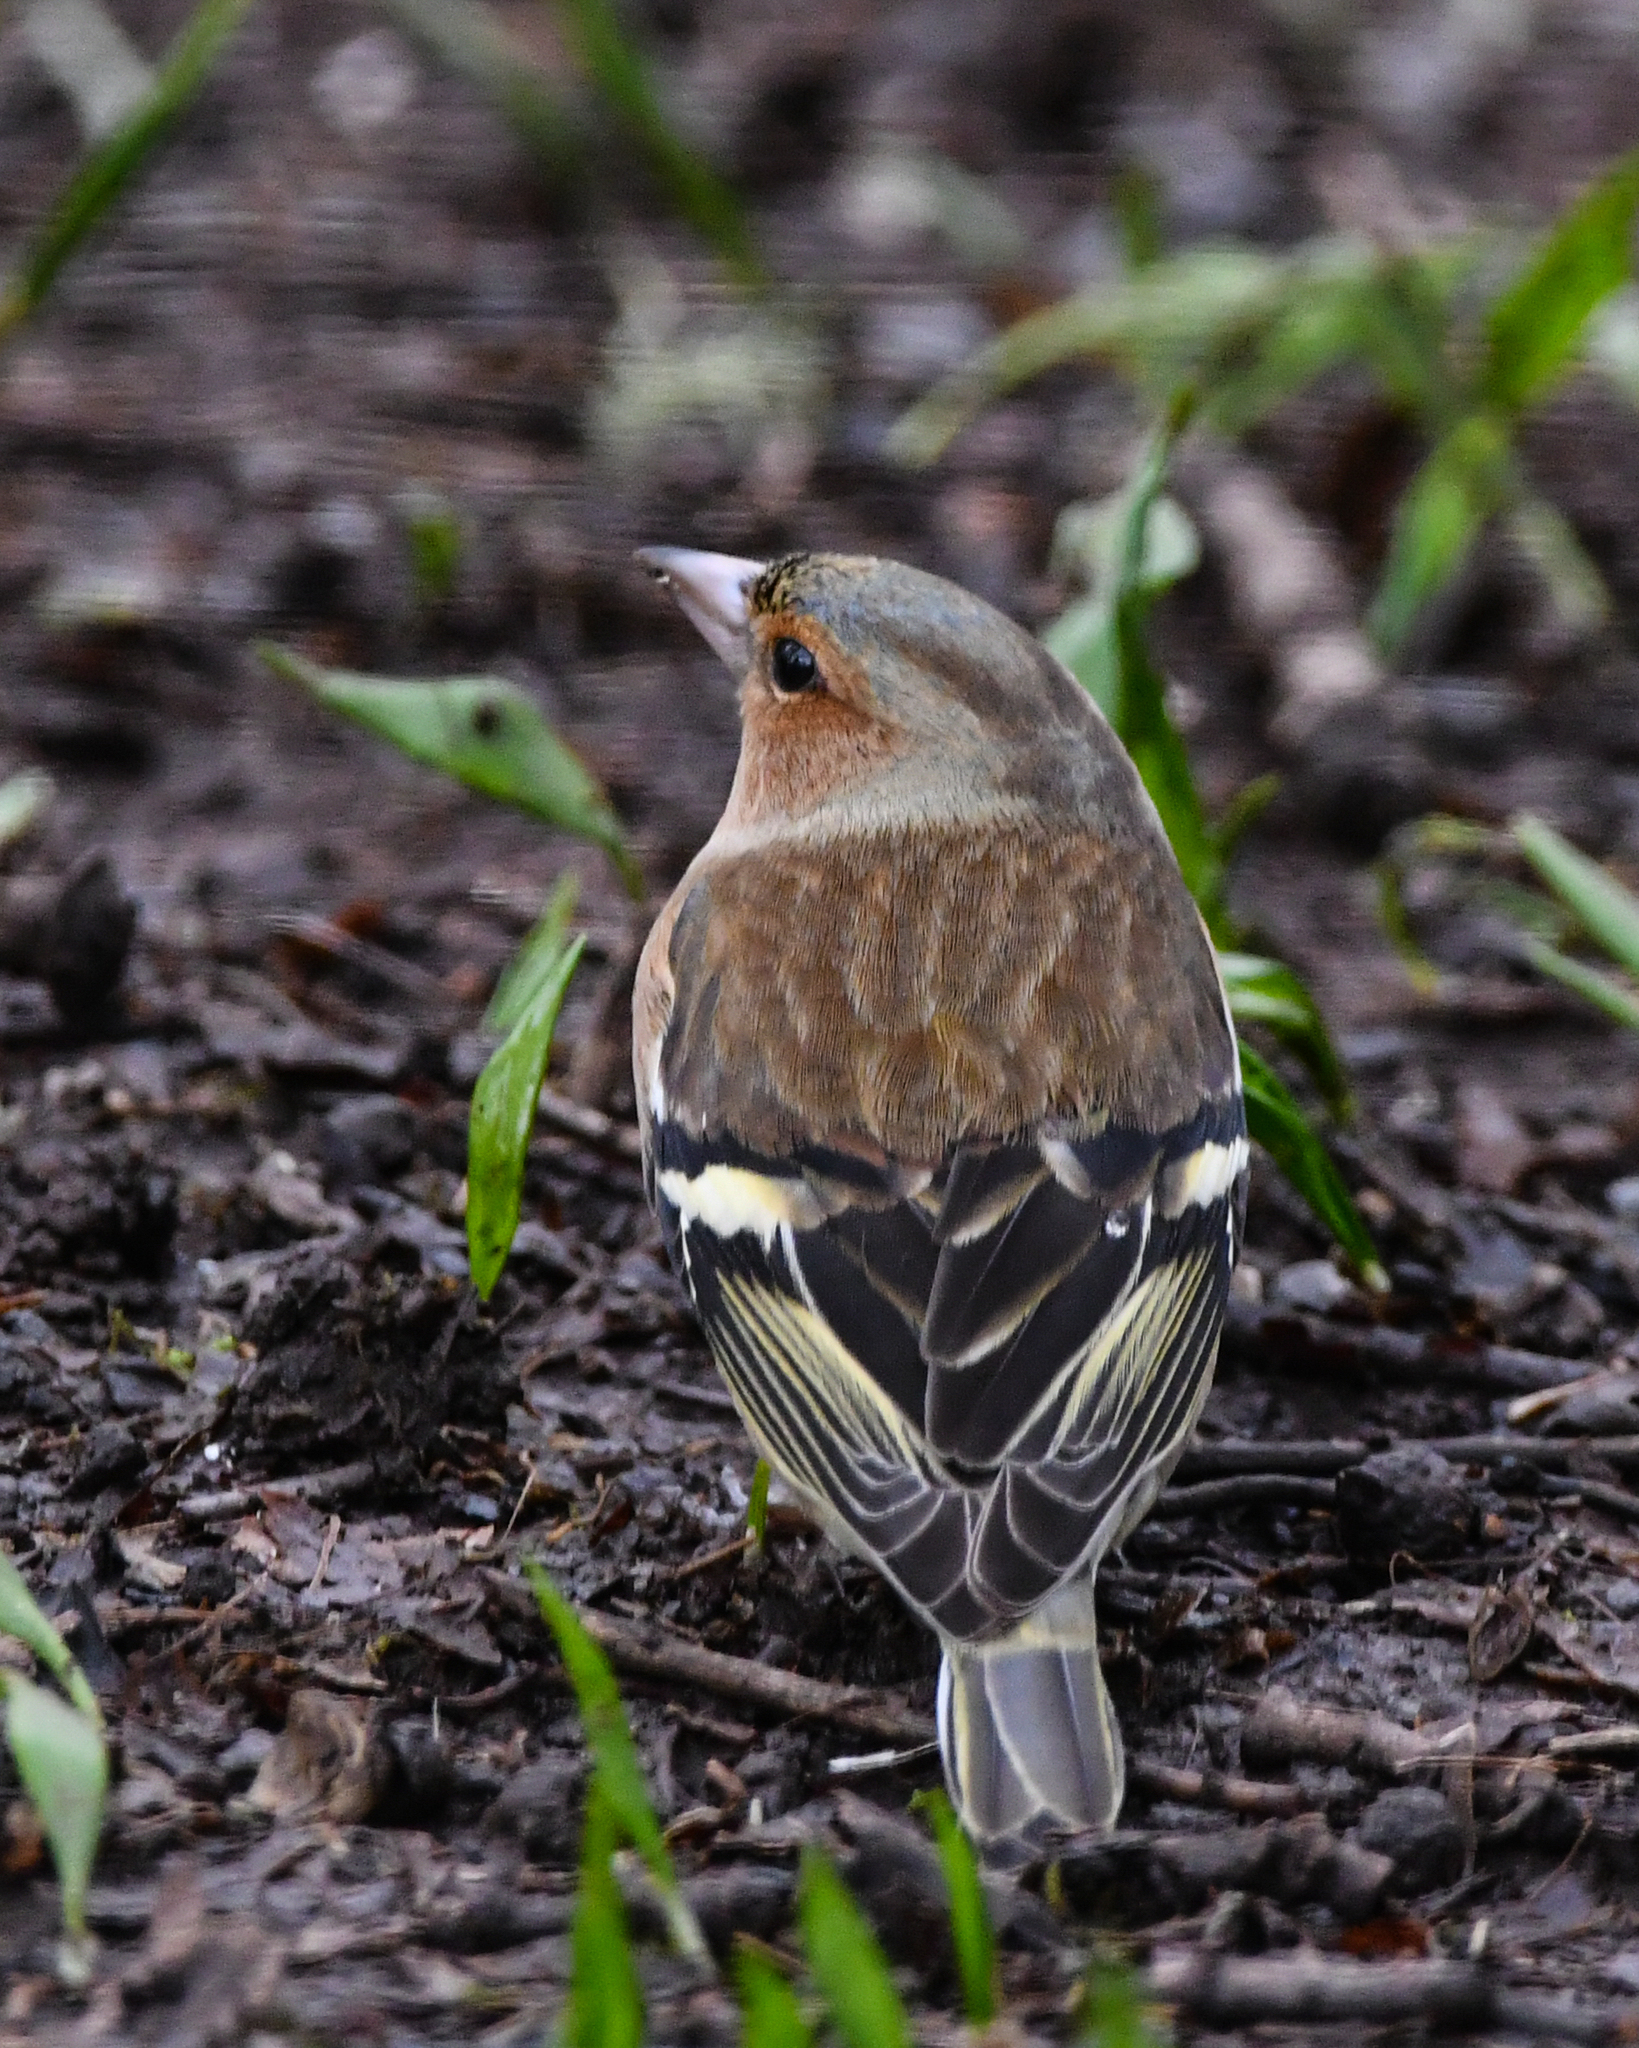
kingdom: Animalia
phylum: Chordata
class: Aves
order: Passeriformes
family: Fringillidae
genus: Fringilla
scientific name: Fringilla coelebs
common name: Common chaffinch
